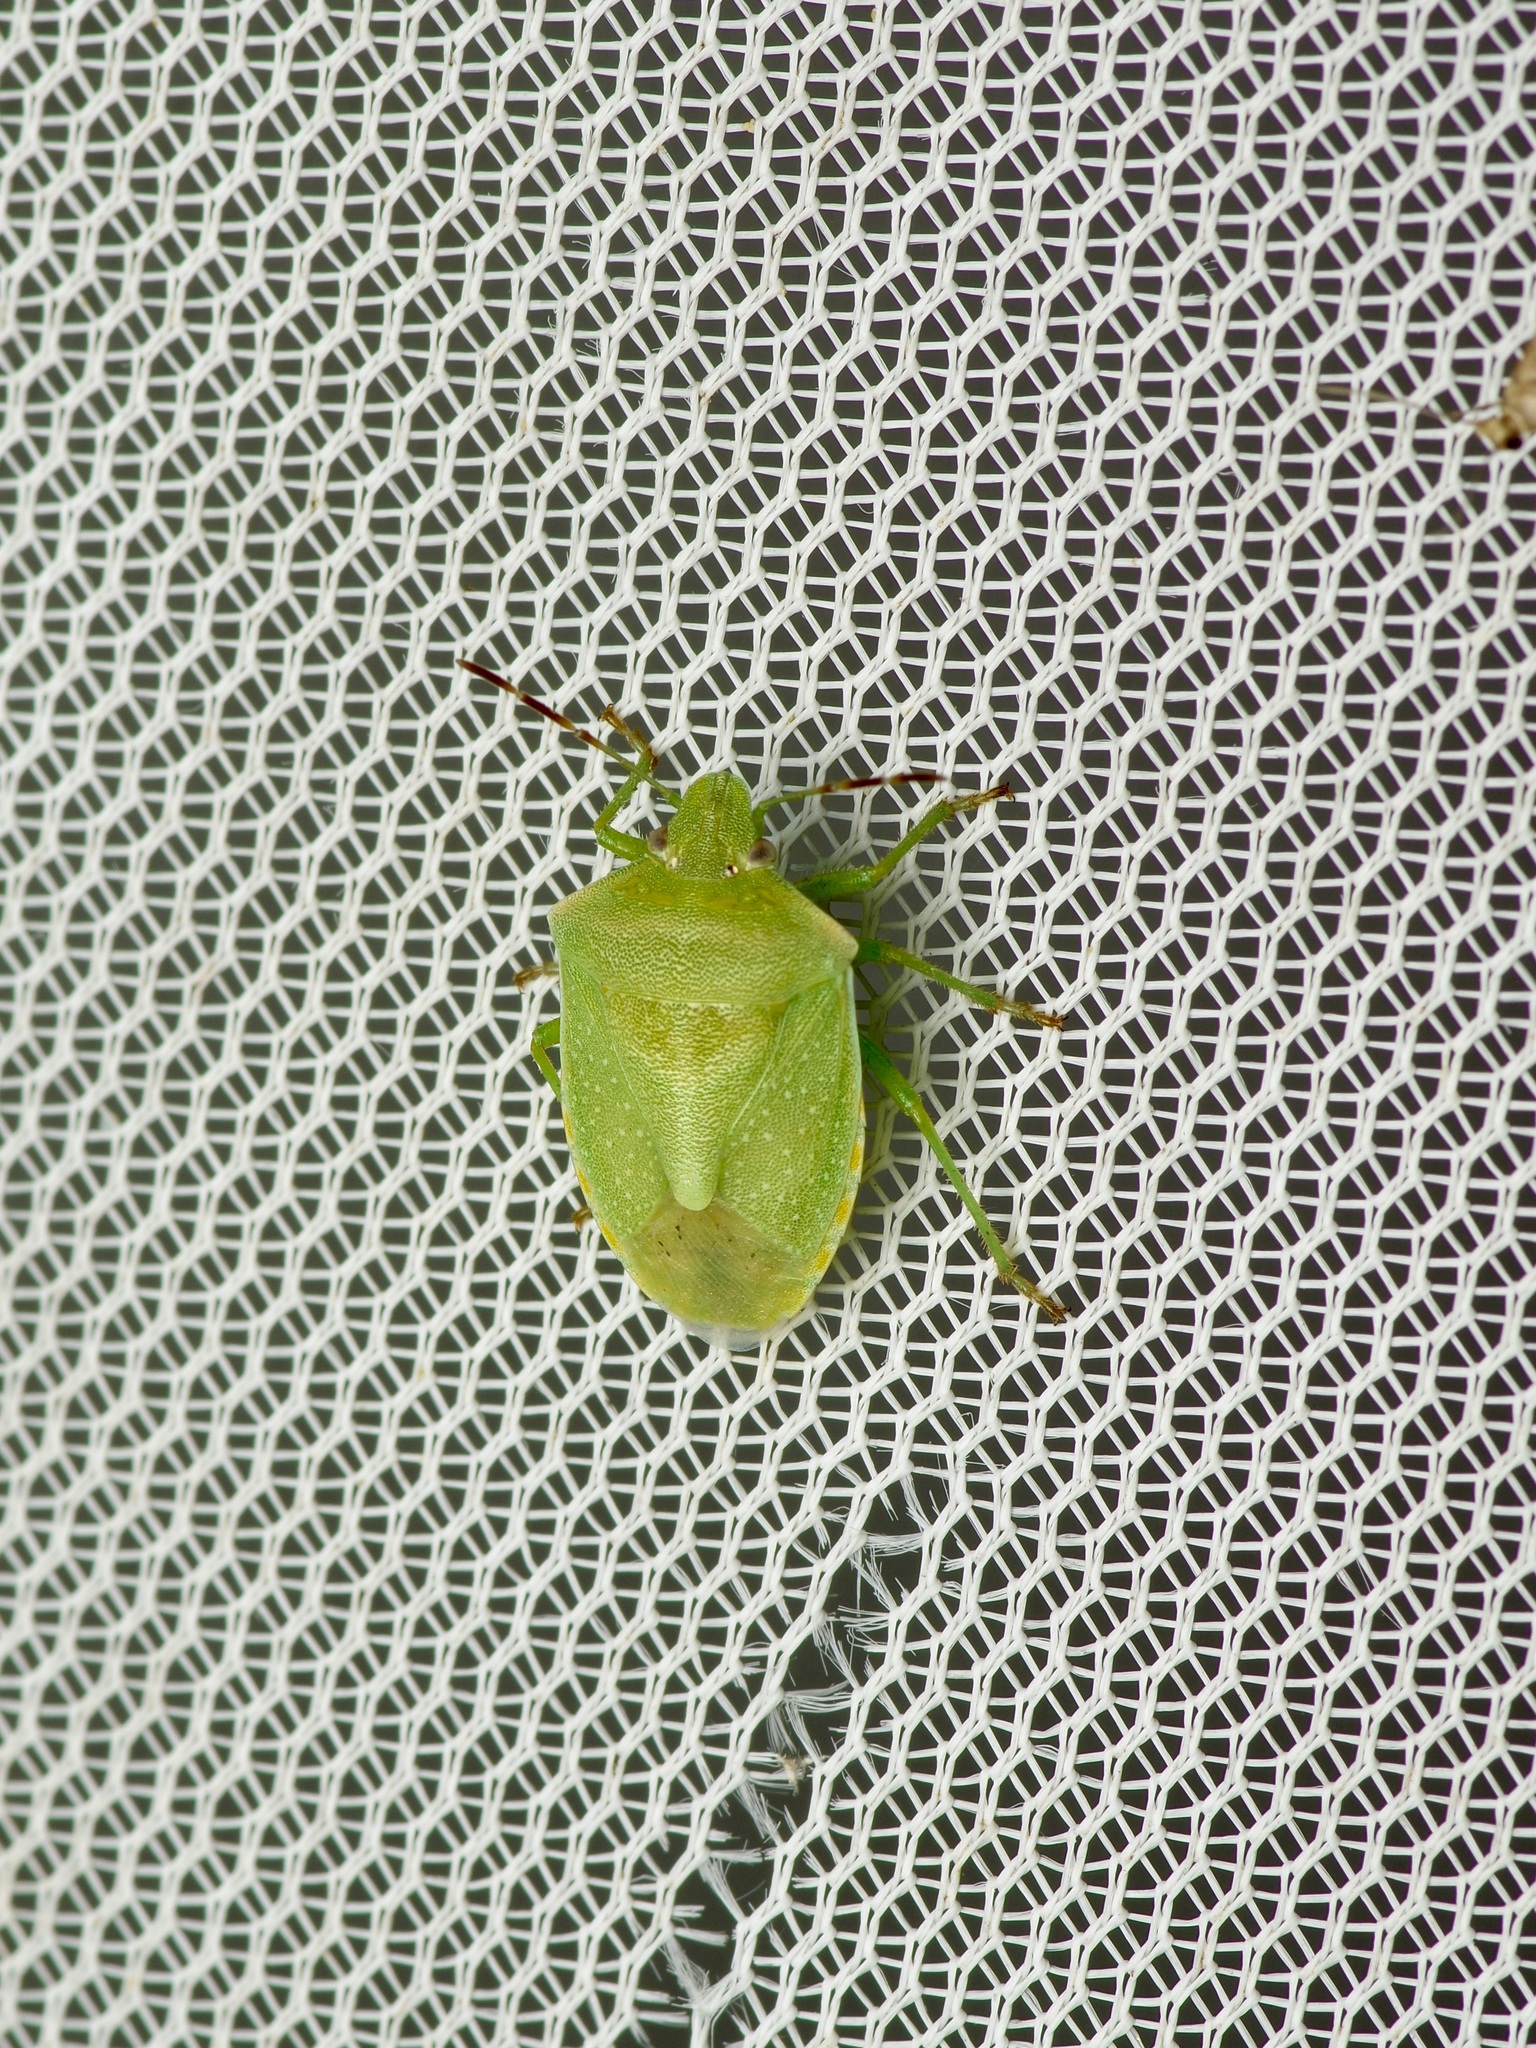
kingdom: Animalia
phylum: Arthropoda
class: Insecta
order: Hemiptera
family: Pentatomidae
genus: Thyanta
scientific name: Thyanta accerra
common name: Stink bug
